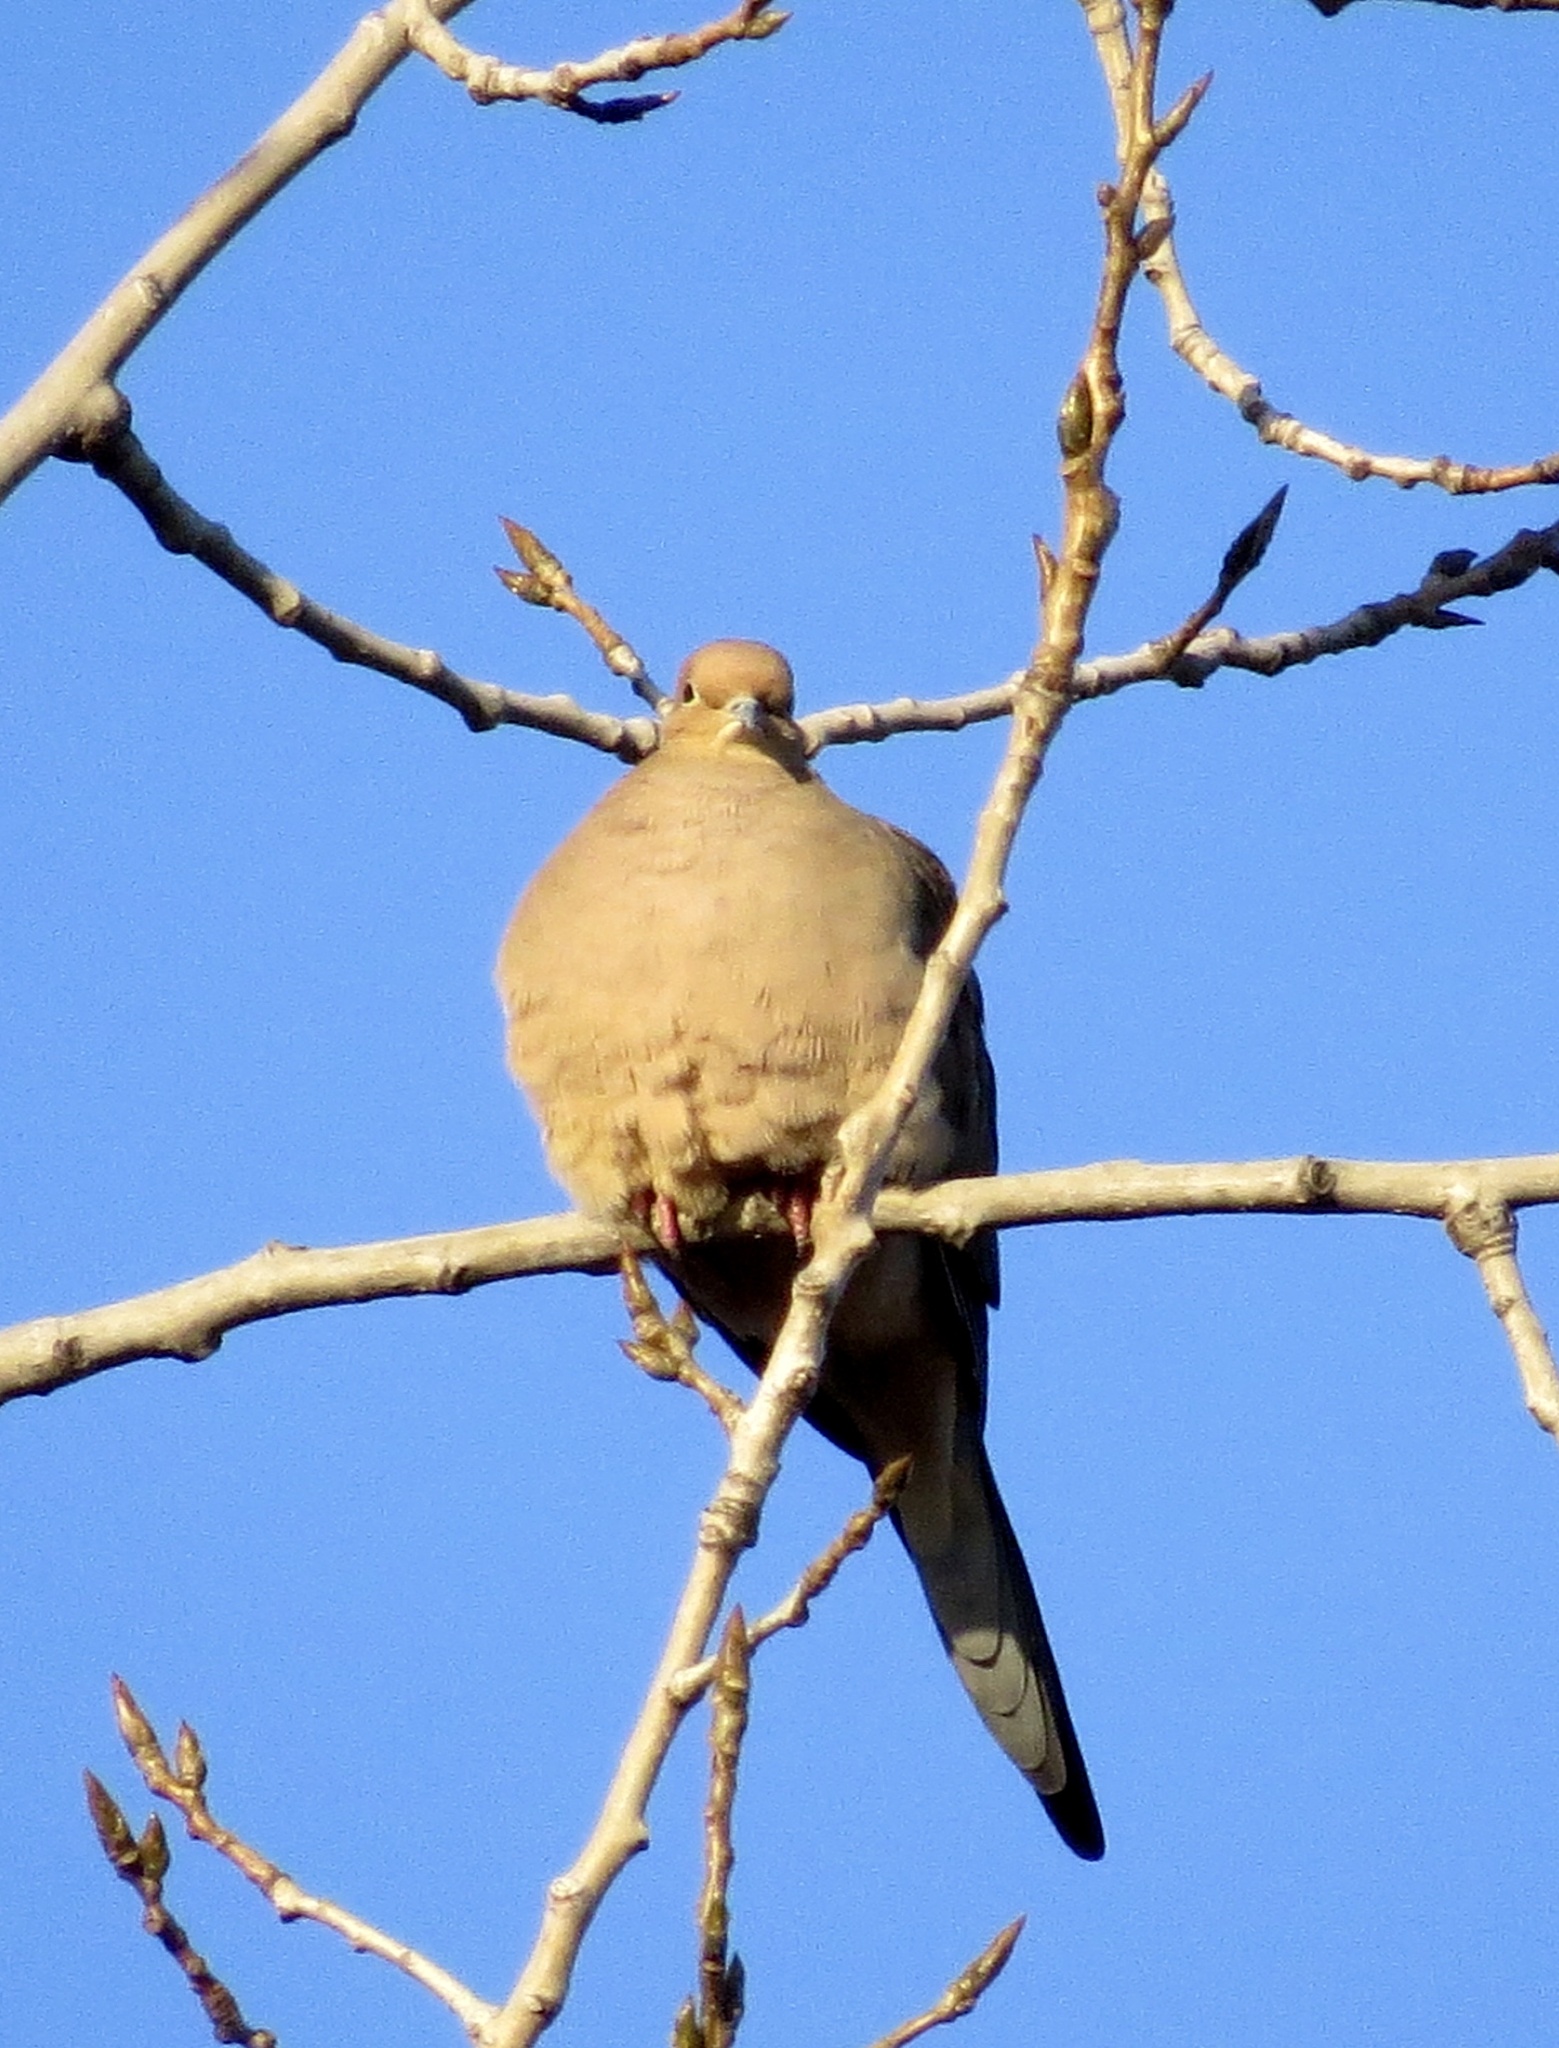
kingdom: Animalia
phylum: Chordata
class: Aves
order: Columbiformes
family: Columbidae
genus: Zenaida
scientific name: Zenaida macroura
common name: Mourning dove
